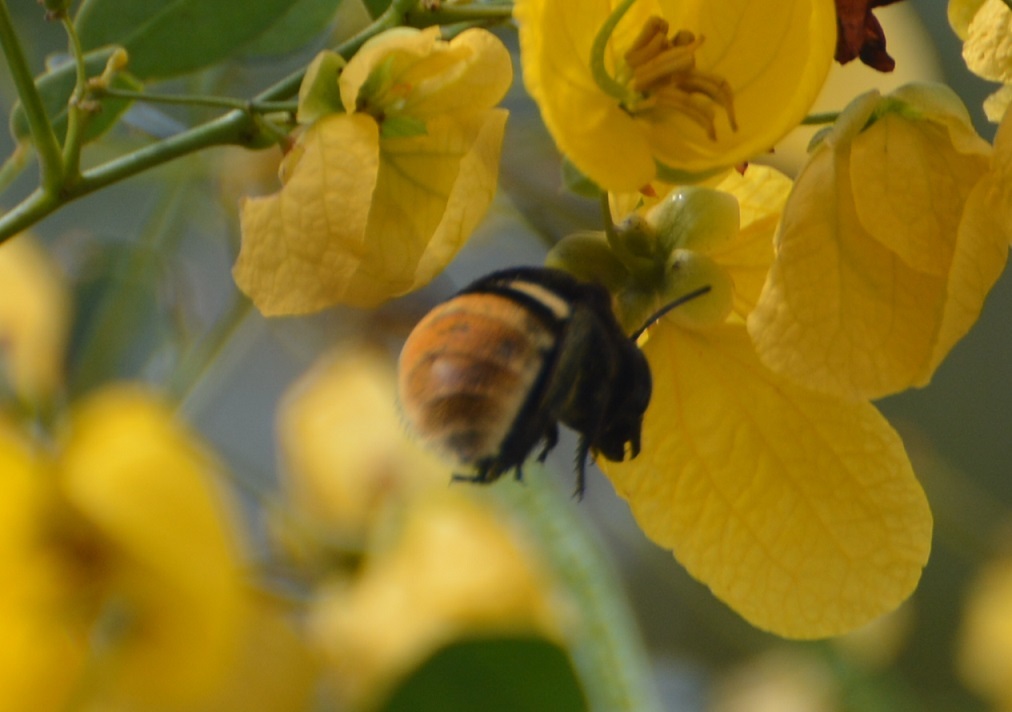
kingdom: Animalia
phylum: Arthropoda
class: Insecta
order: Hymenoptera
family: Apidae
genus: Eulaema
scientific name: Eulaema cingulata
